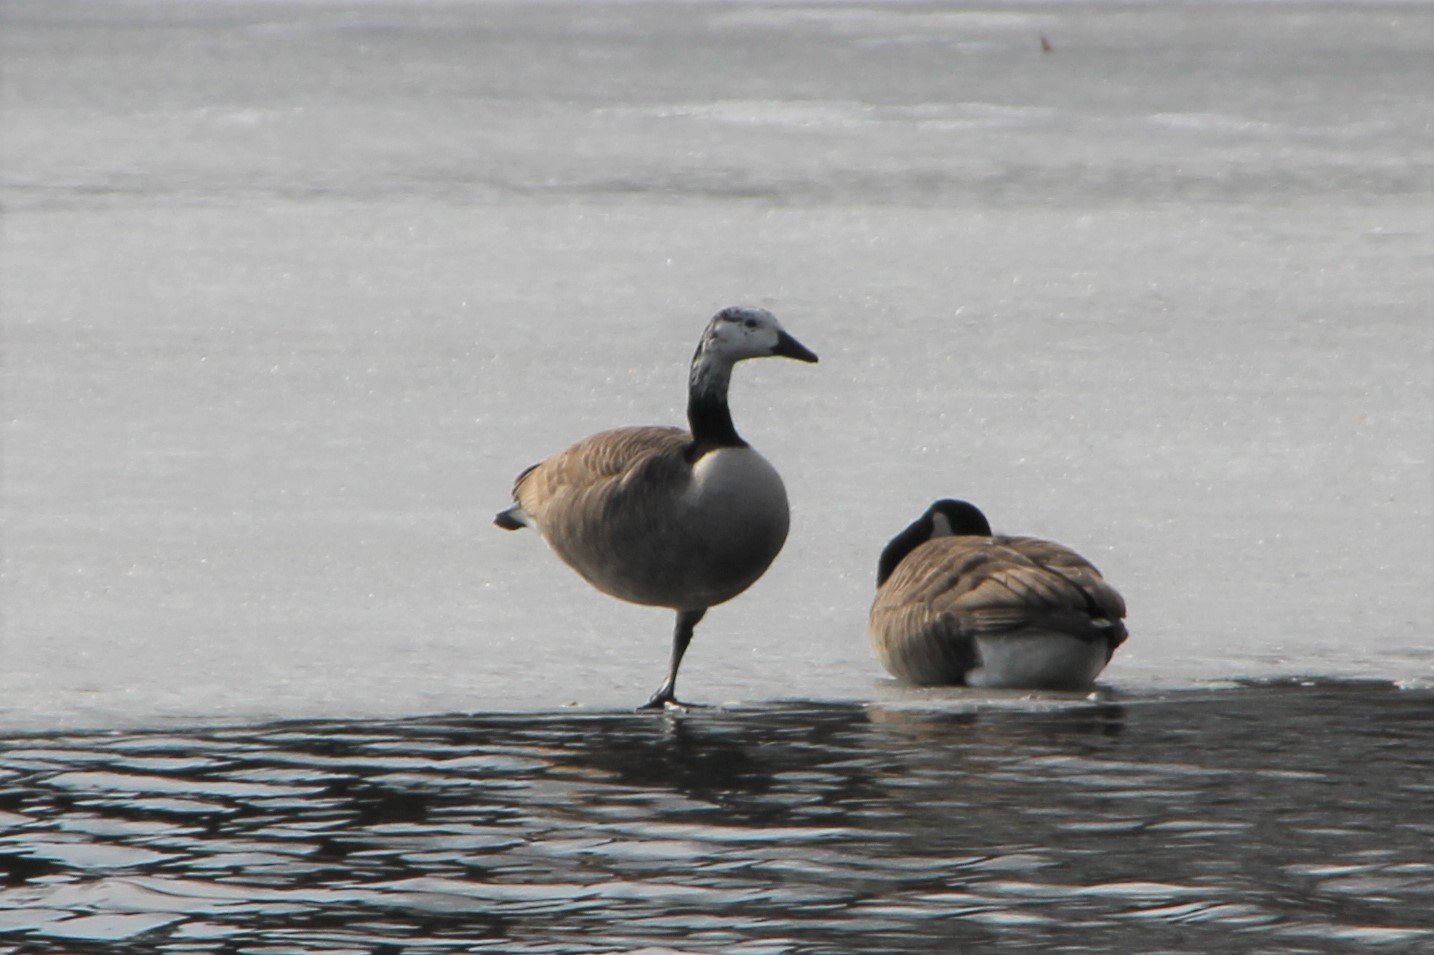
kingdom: Animalia
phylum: Chordata
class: Aves
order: Anseriformes
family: Anatidae
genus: Branta
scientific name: Branta canadensis
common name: Canada goose
